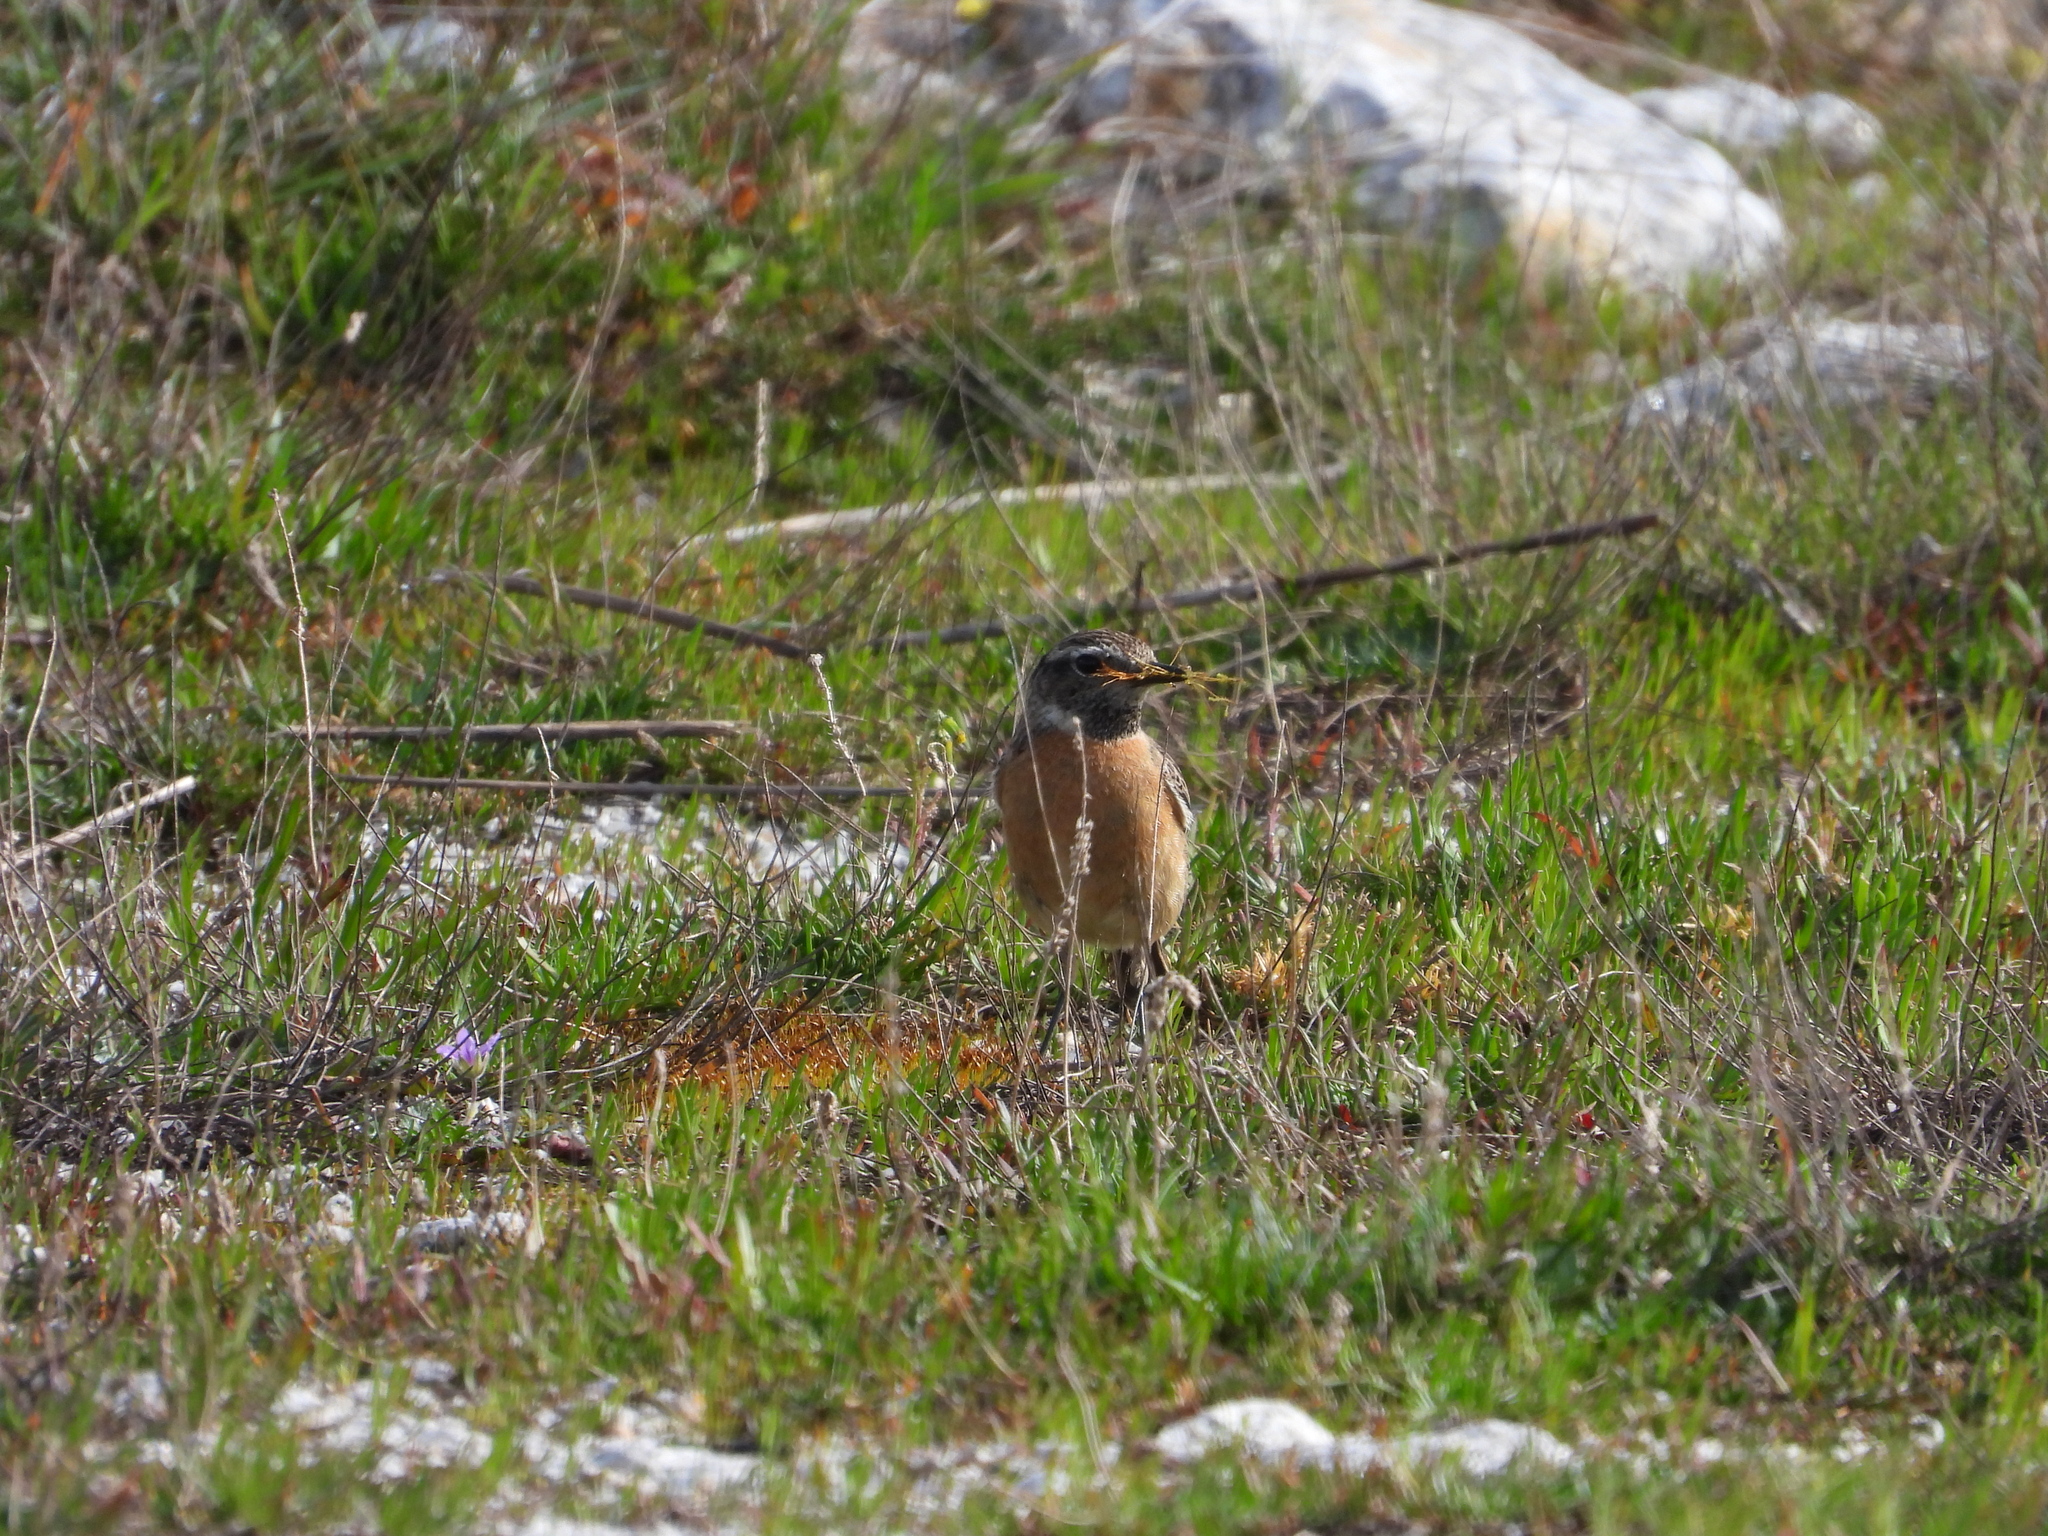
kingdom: Animalia
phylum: Chordata
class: Aves
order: Passeriformes
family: Muscicapidae
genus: Saxicola
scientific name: Saxicola rubicola
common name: European stonechat
